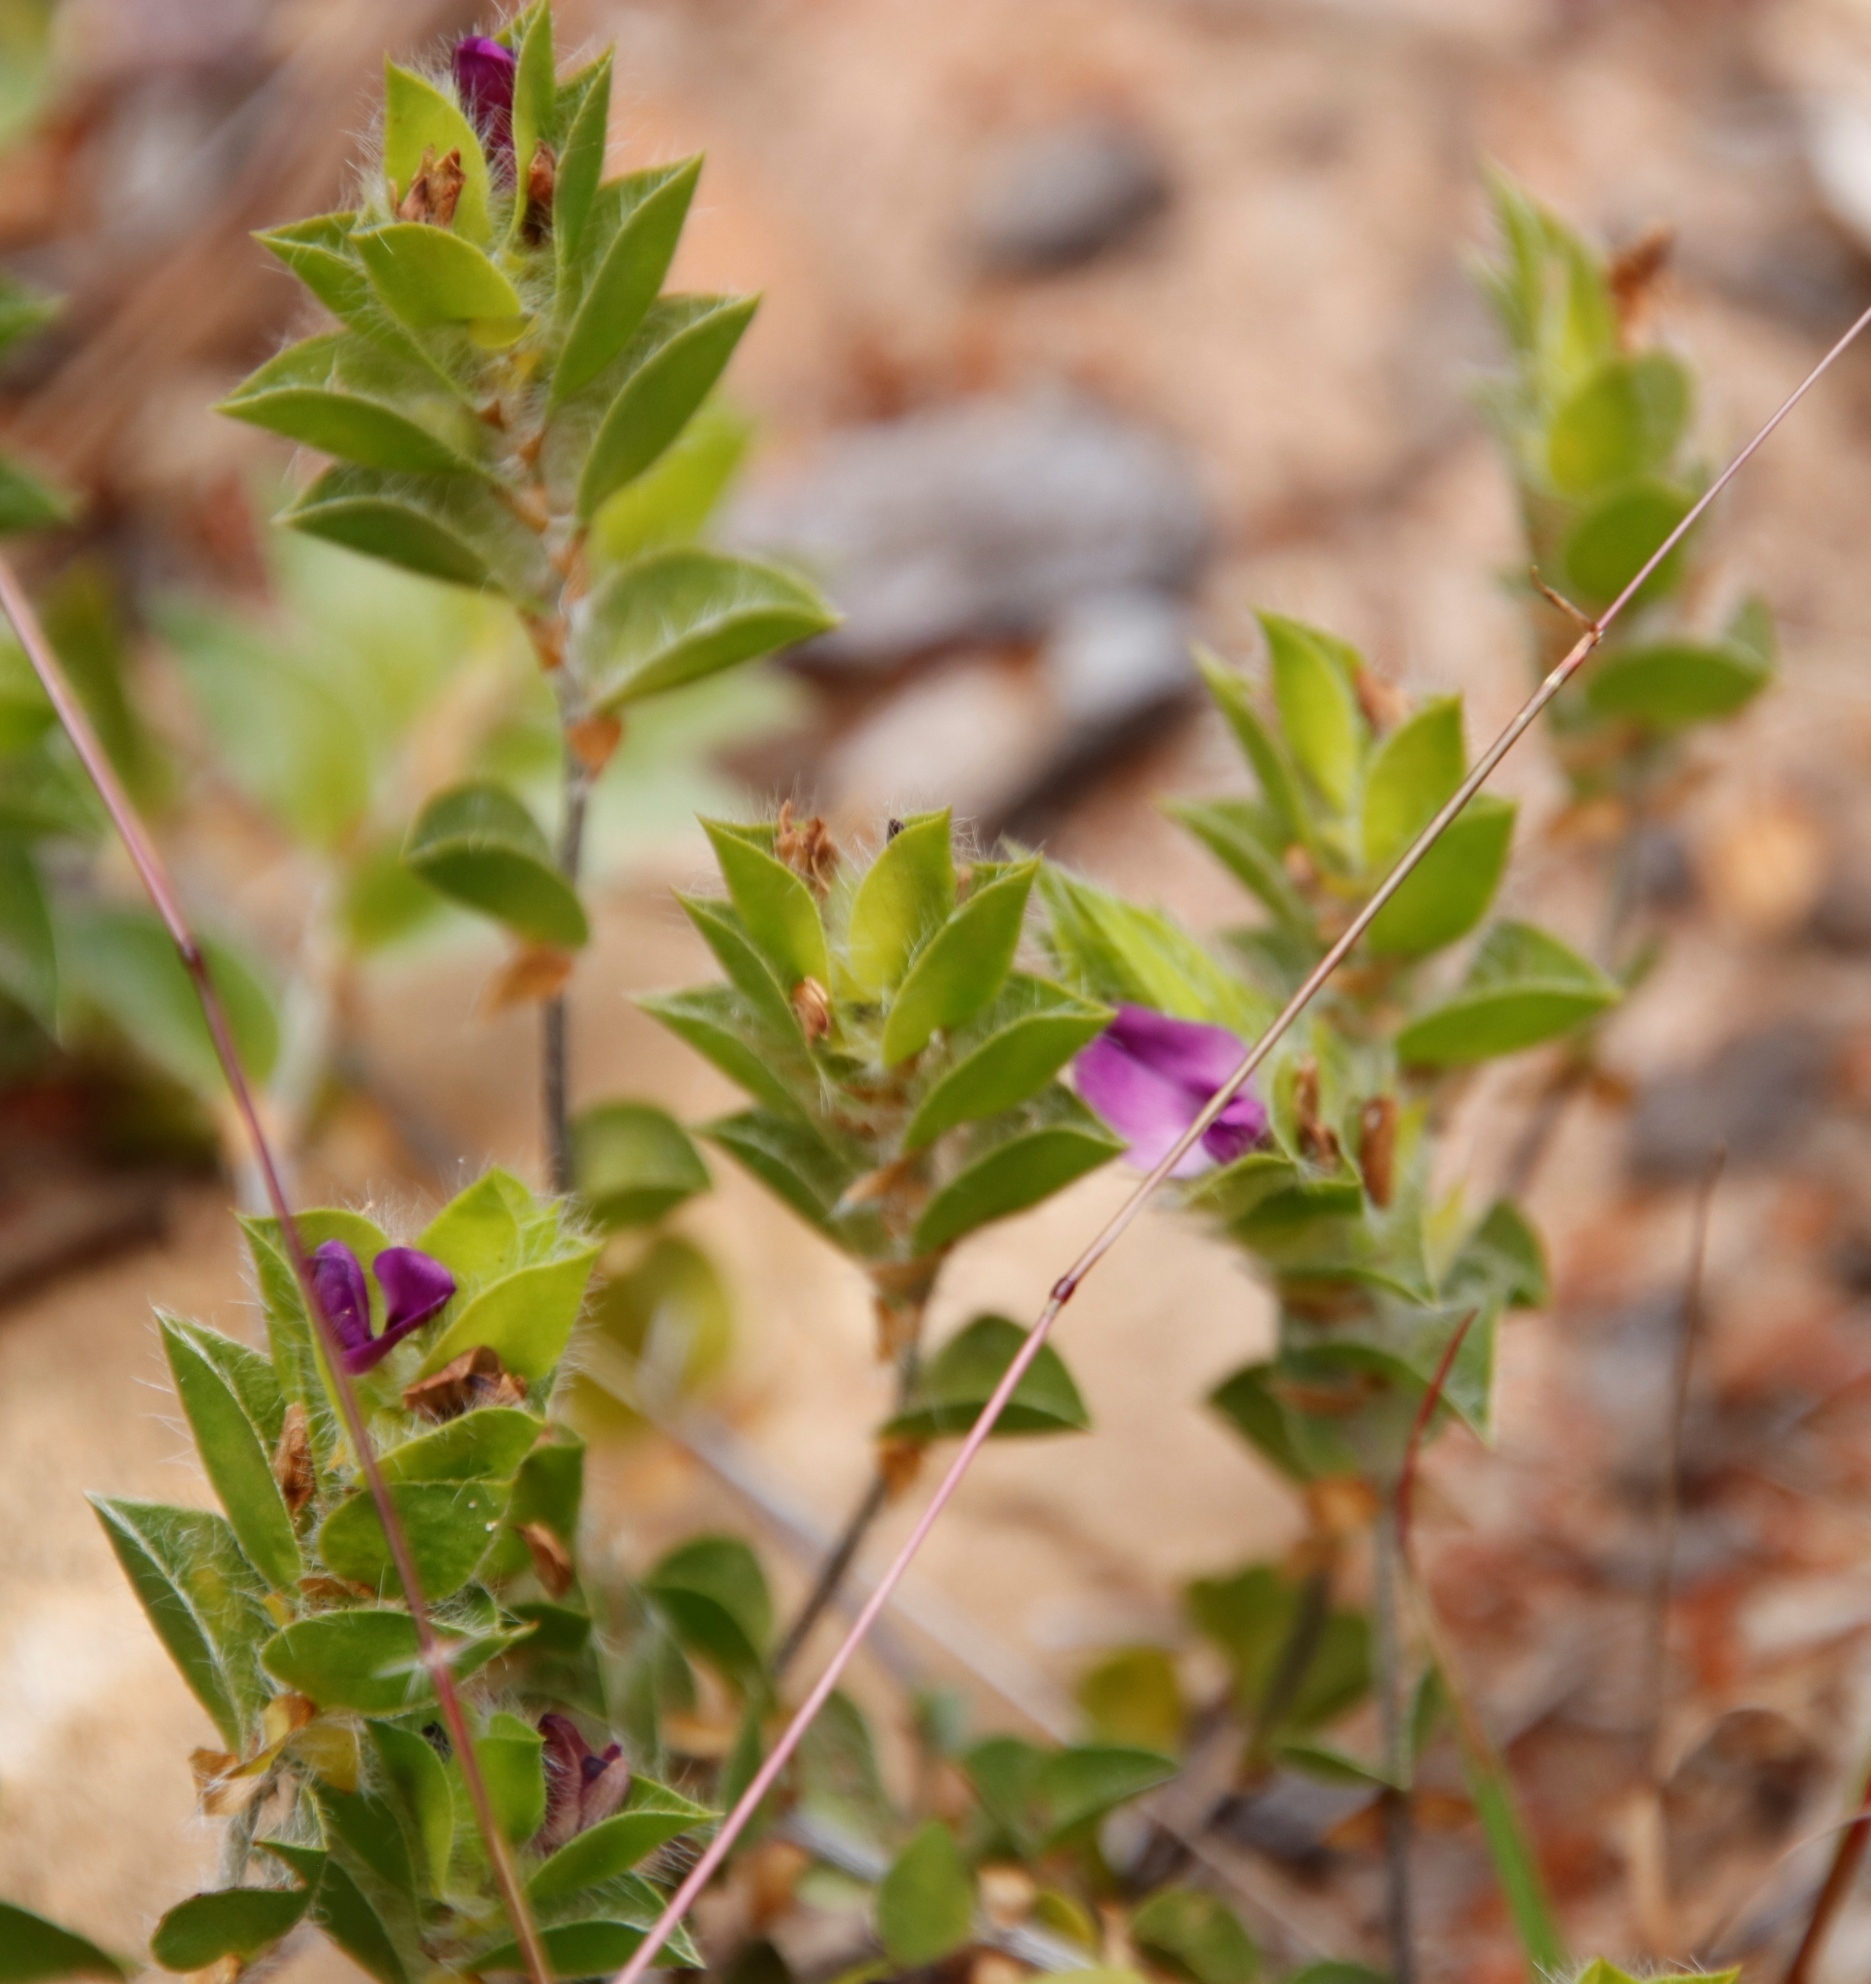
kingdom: Plantae
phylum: Tracheophyta
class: Magnoliopsida
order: Fabales
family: Fabaceae
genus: Psoralea
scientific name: Psoralea imbricata
